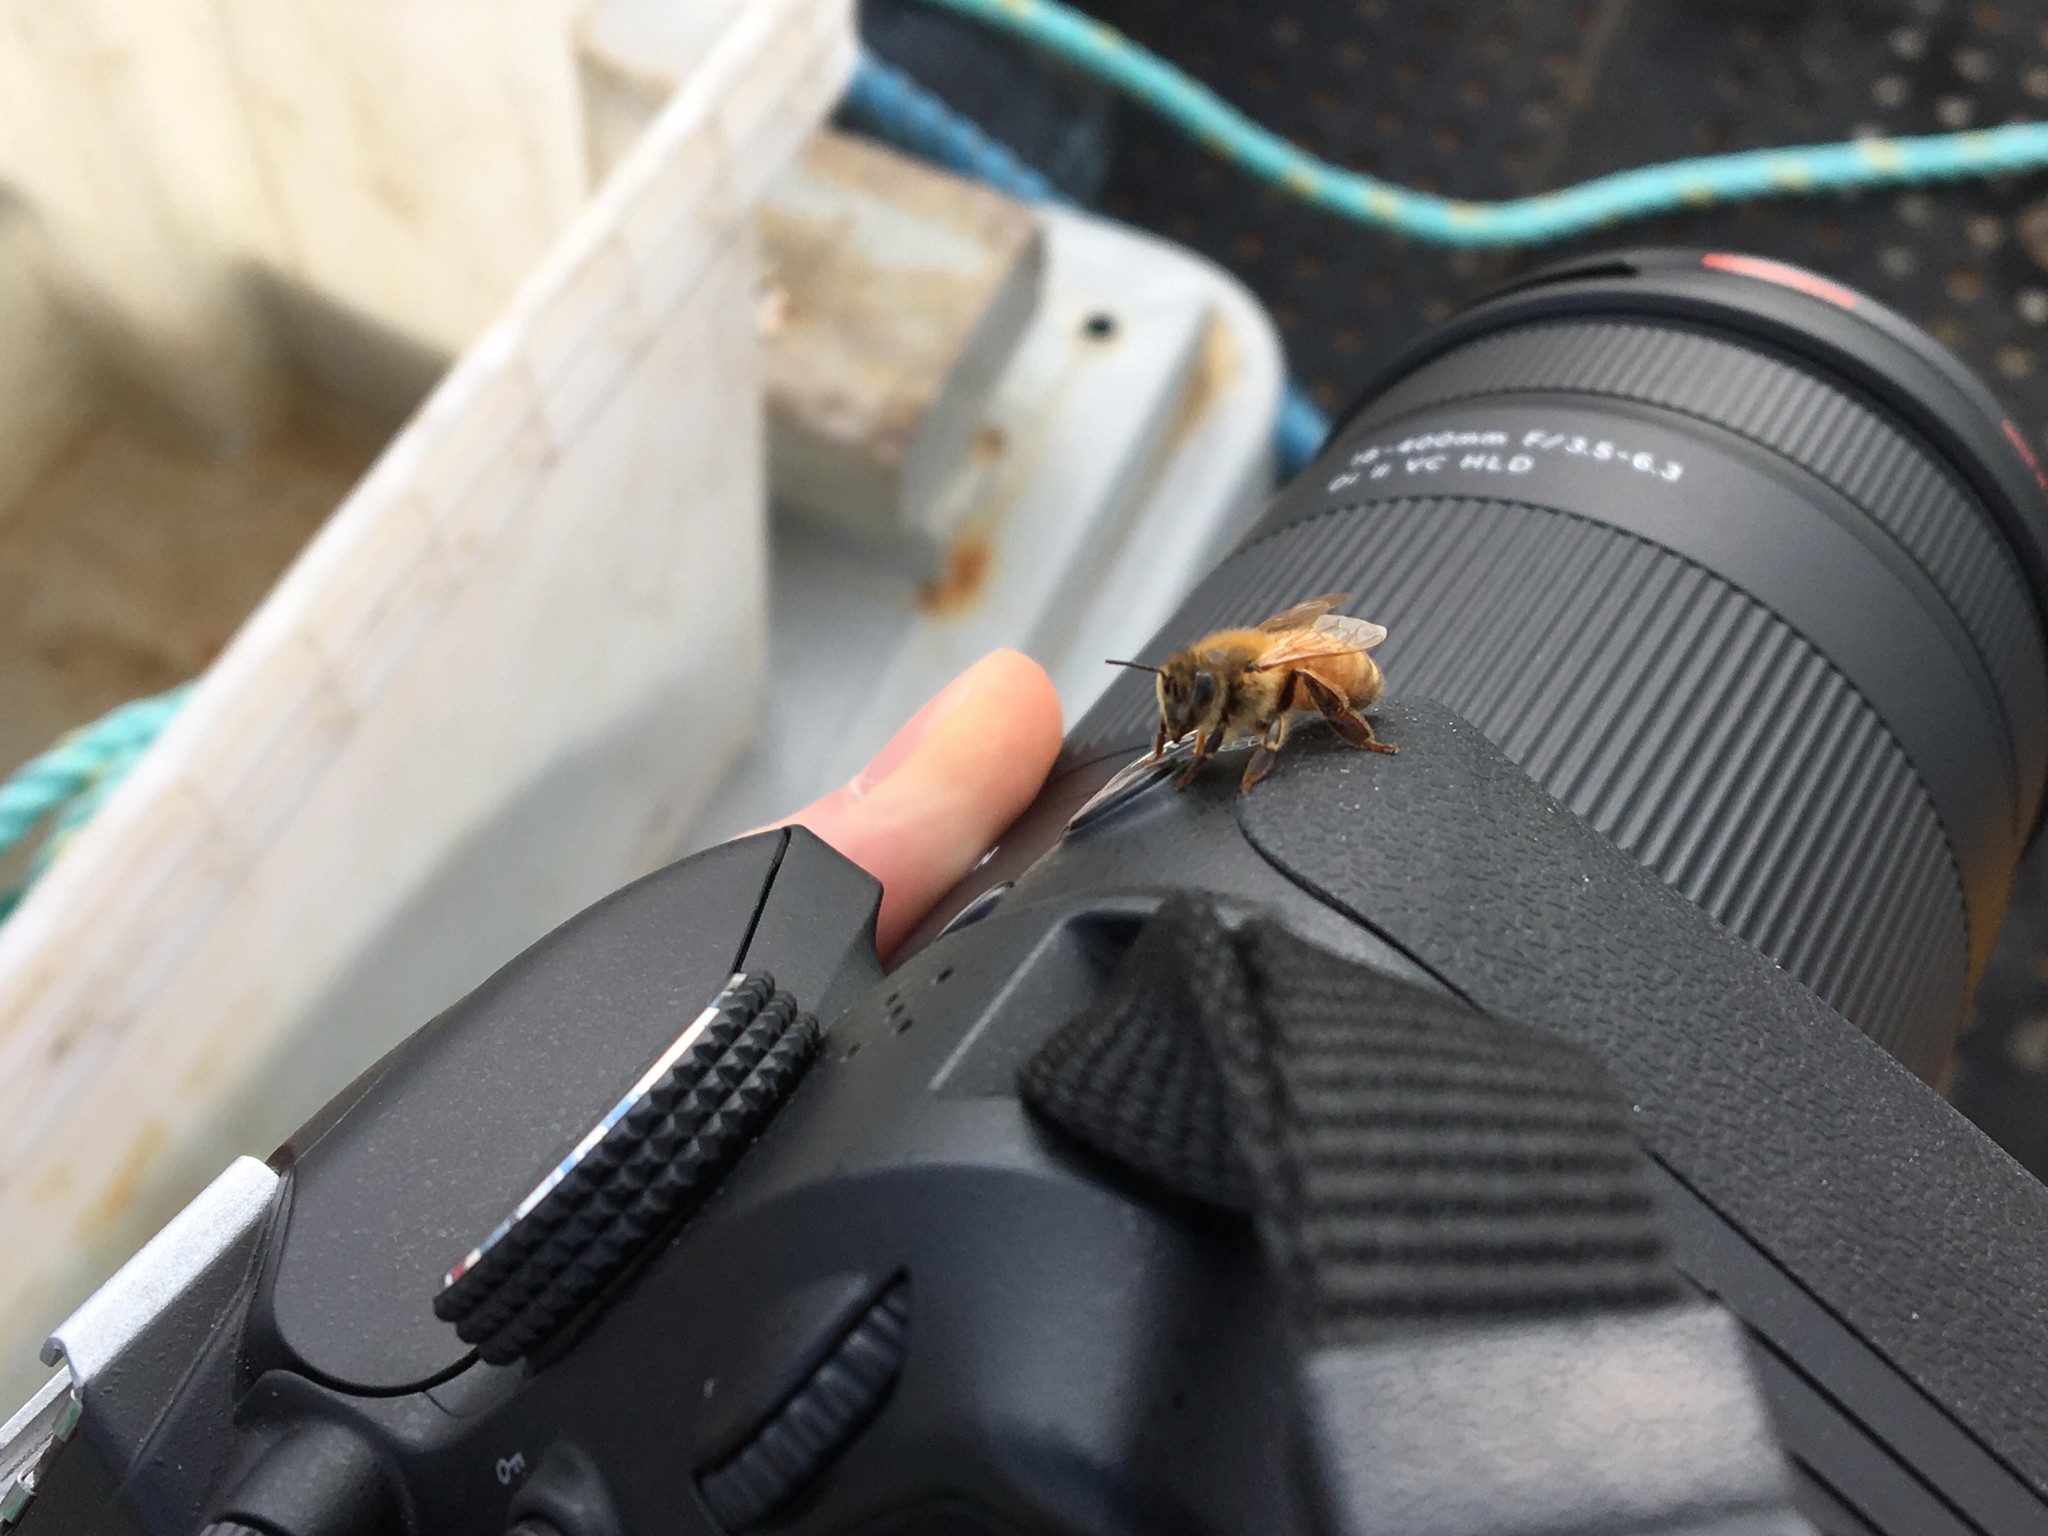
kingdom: Animalia
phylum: Arthropoda
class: Insecta
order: Hymenoptera
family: Apidae
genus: Apis
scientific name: Apis mellifera
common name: Honey bee
